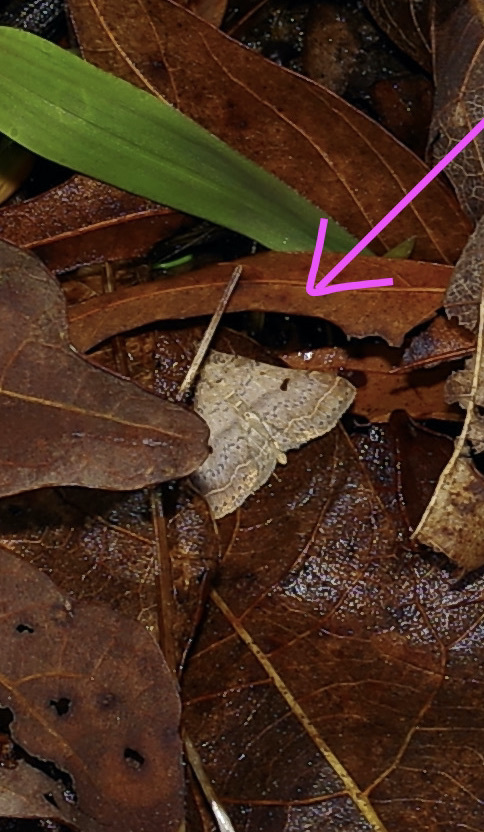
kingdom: Animalia
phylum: Arthropoda
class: Insecta
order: Lepidoptera
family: Erebidae
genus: Bleptina
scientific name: Bleptina caradrinalis
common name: Bent-winged owlet
